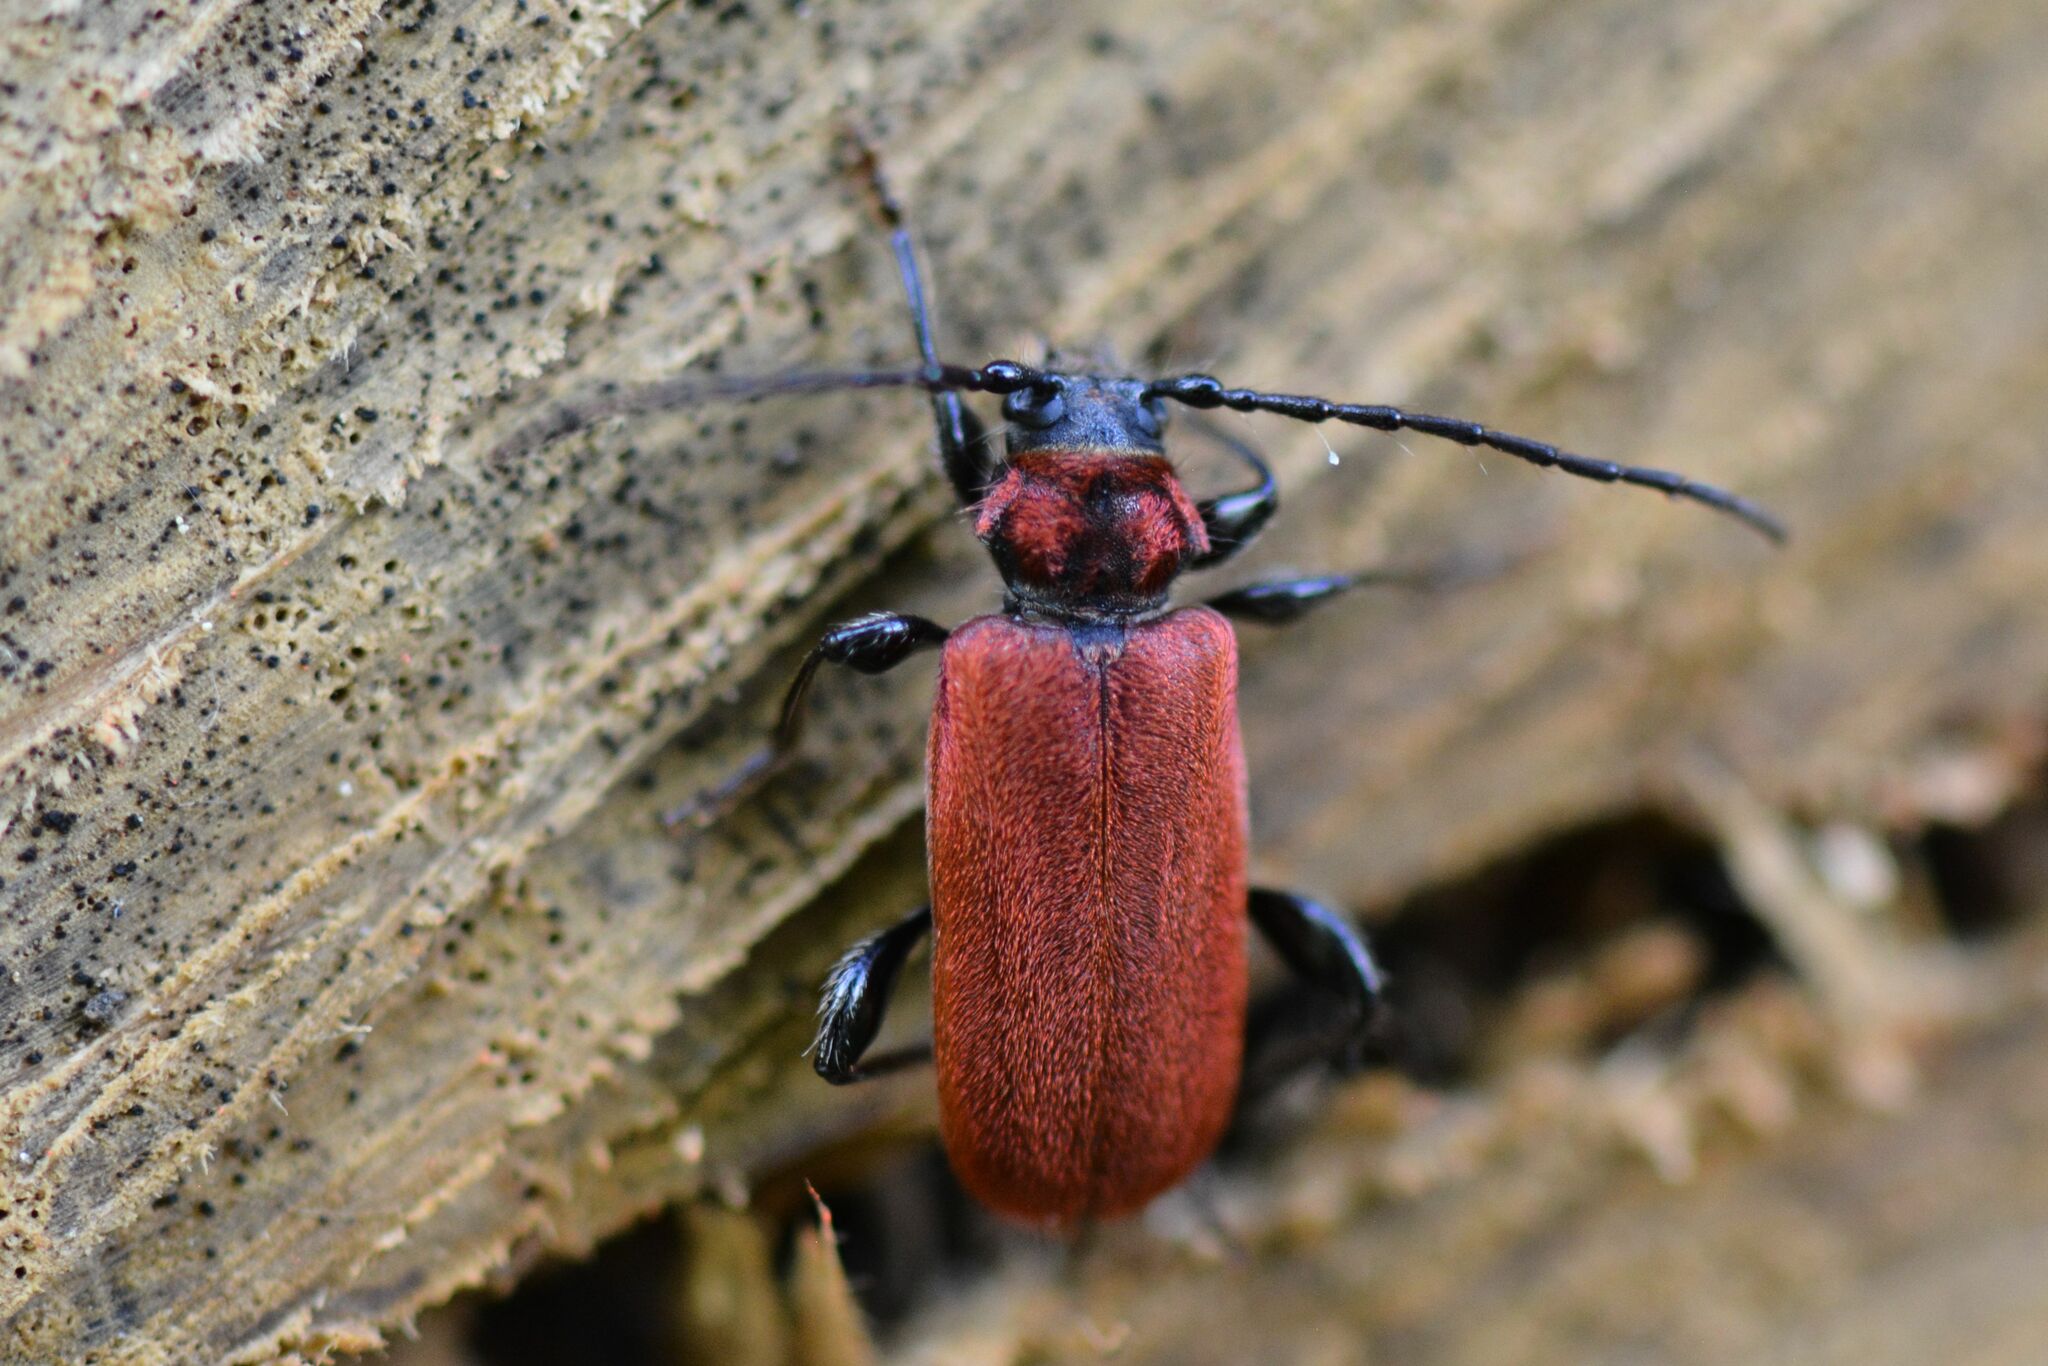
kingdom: Animalia
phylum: Arthropoda
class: Insecta
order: Coleoptera
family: Cerambycidae
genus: Pyrrhidium
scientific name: Pyrrhidium sanguineum
